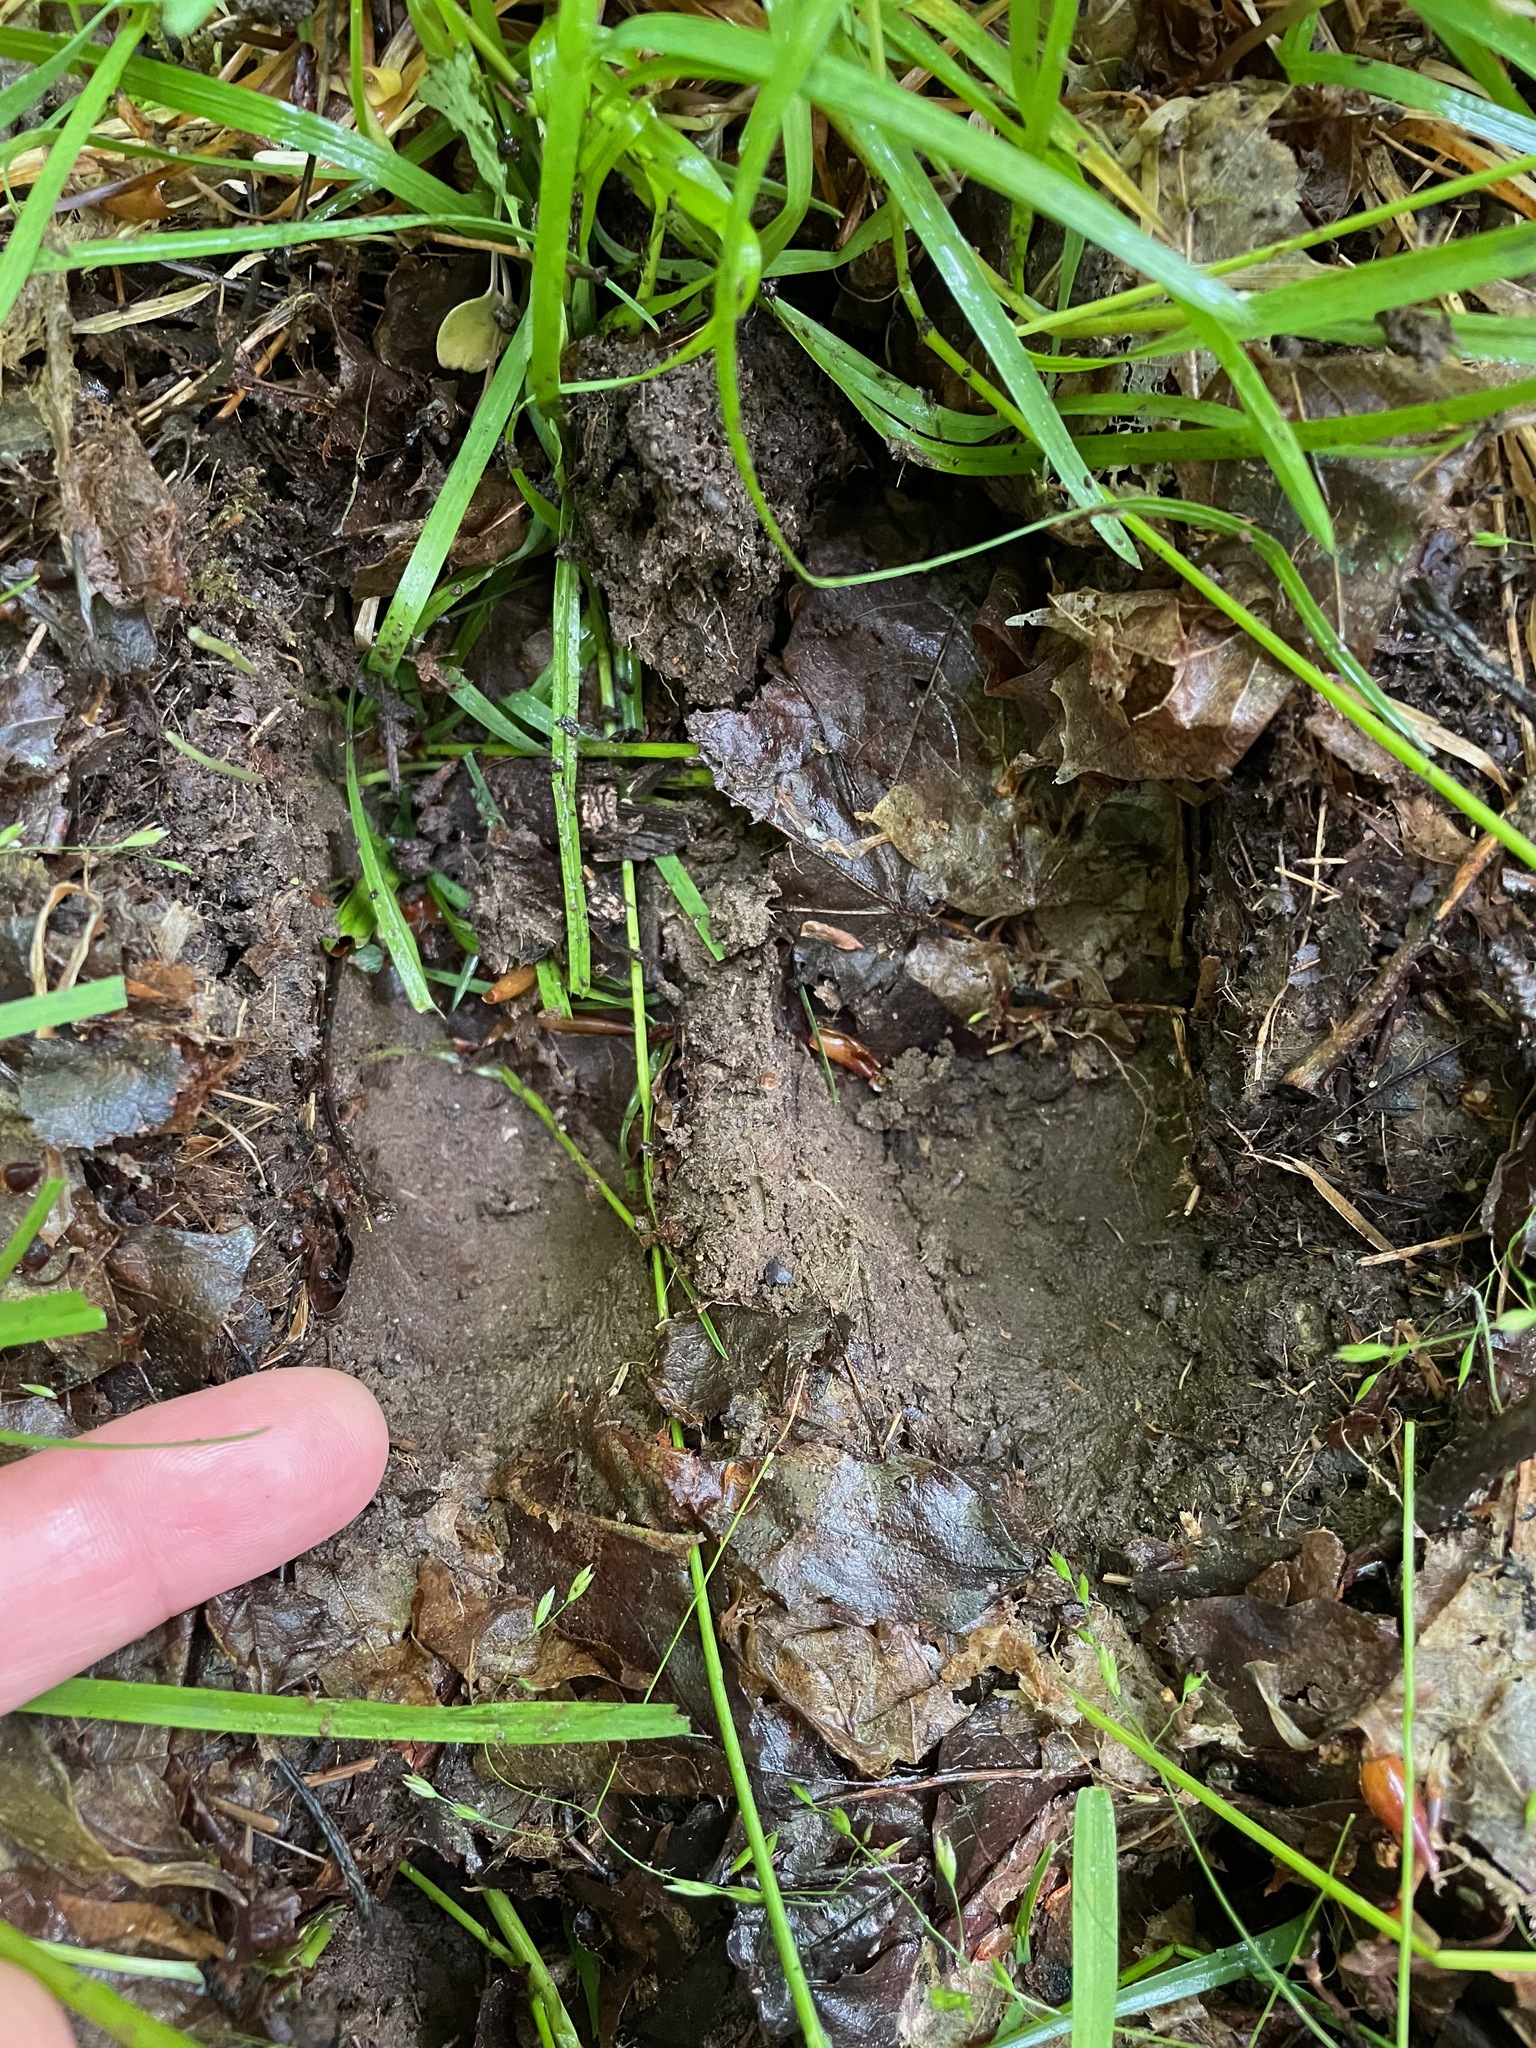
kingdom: Animalia
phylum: Chordata
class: Mammalia
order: Artiodactyla
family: Cervidae
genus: Alces
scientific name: Alces alces
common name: Moose
